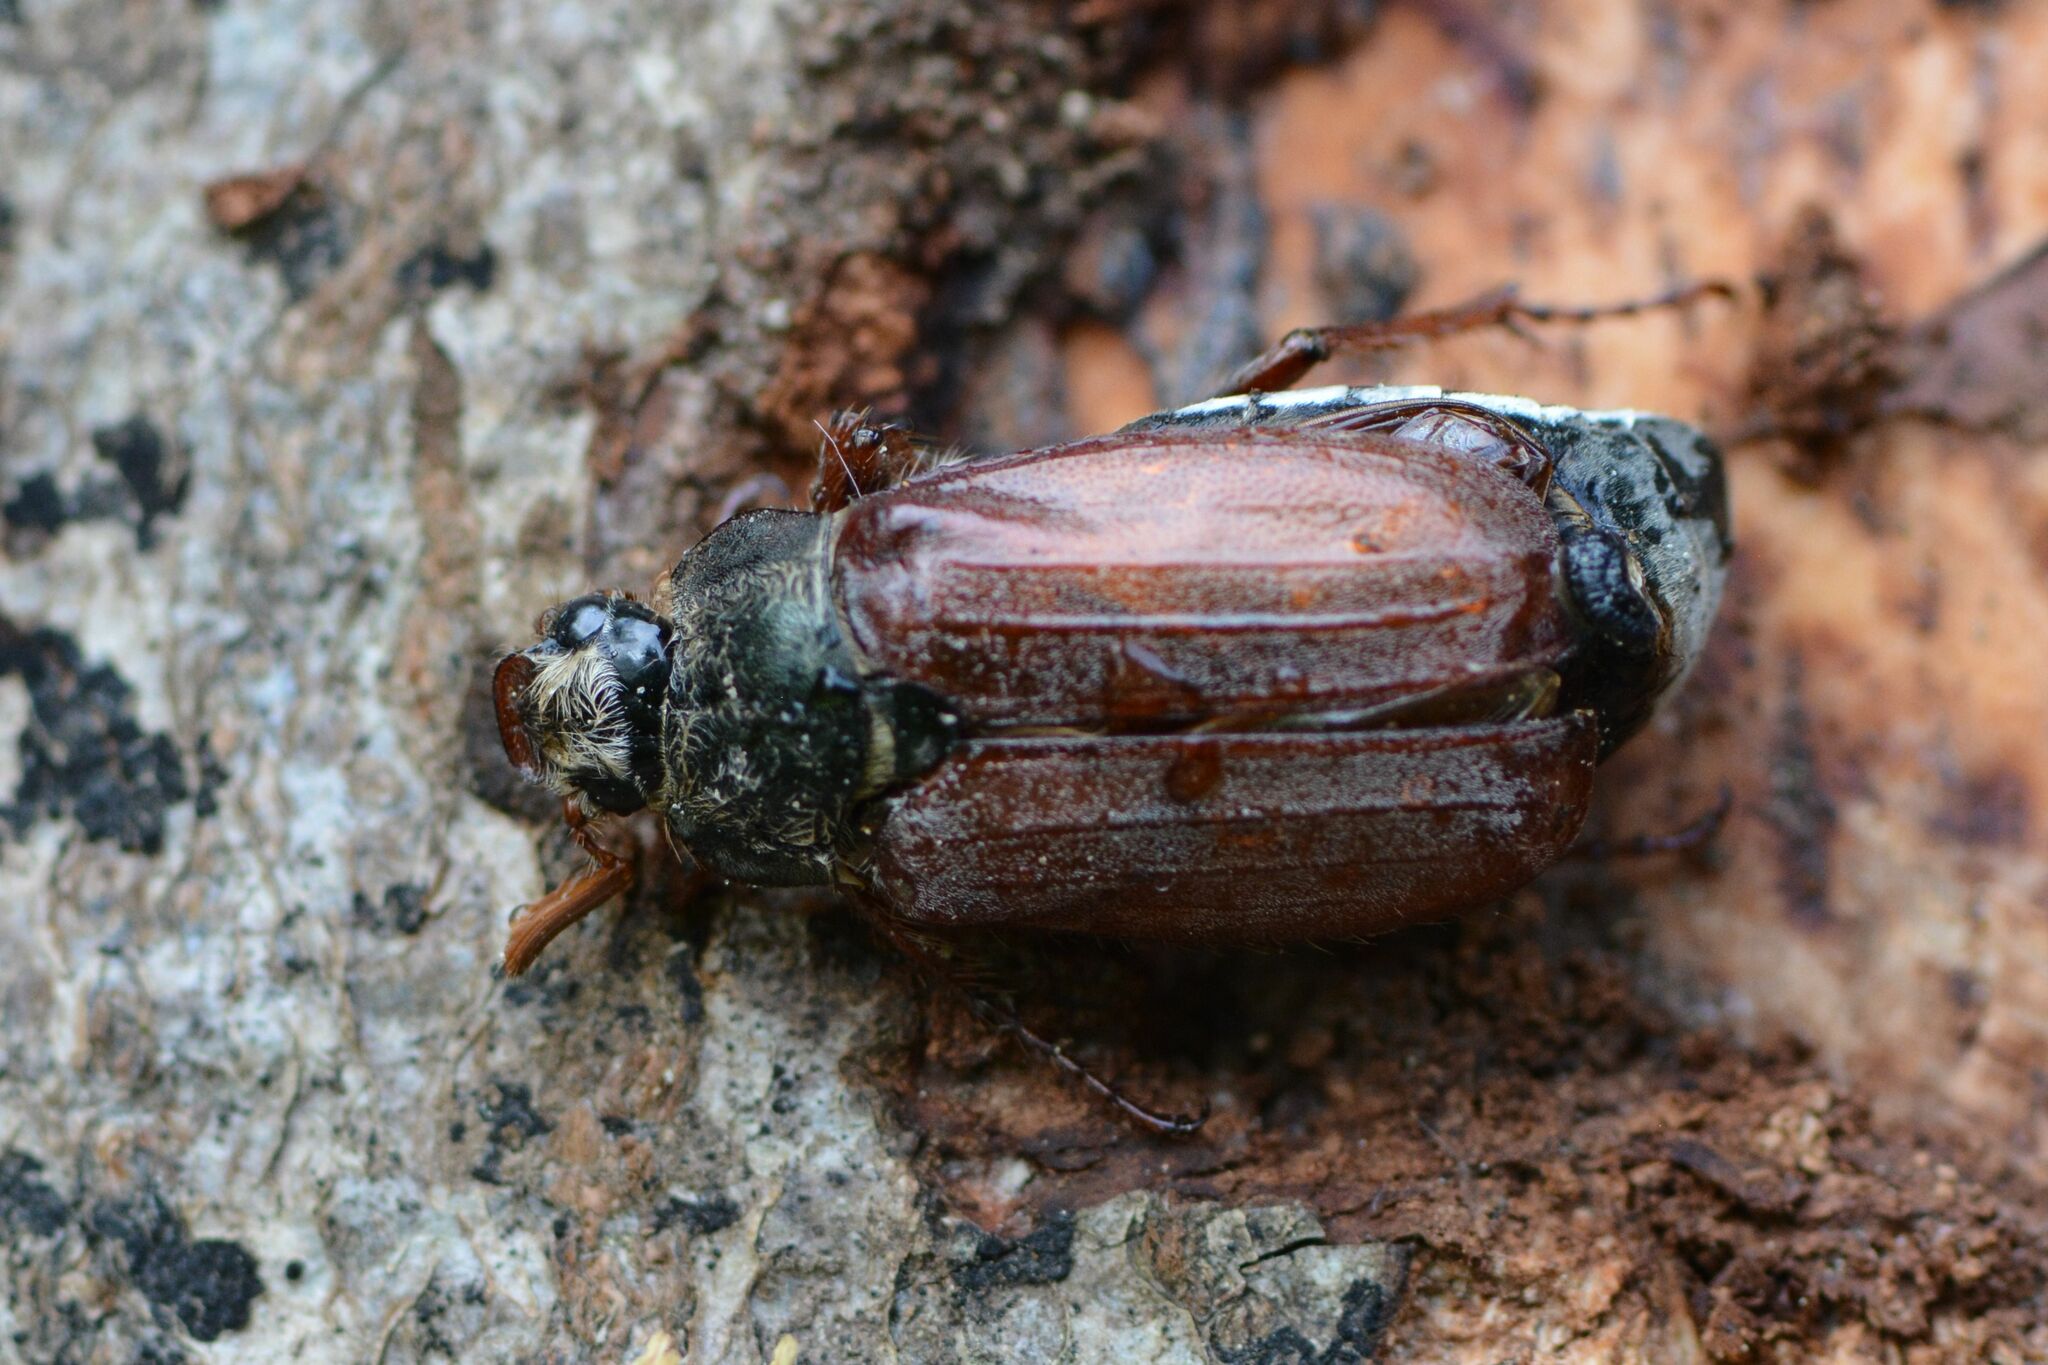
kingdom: Animalia
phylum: Arthropoda
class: Insecta
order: Coleoptera
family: Scarabaeidae
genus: Melolontha
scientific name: Melolontha melolontha
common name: Cockchafer maybeetle
